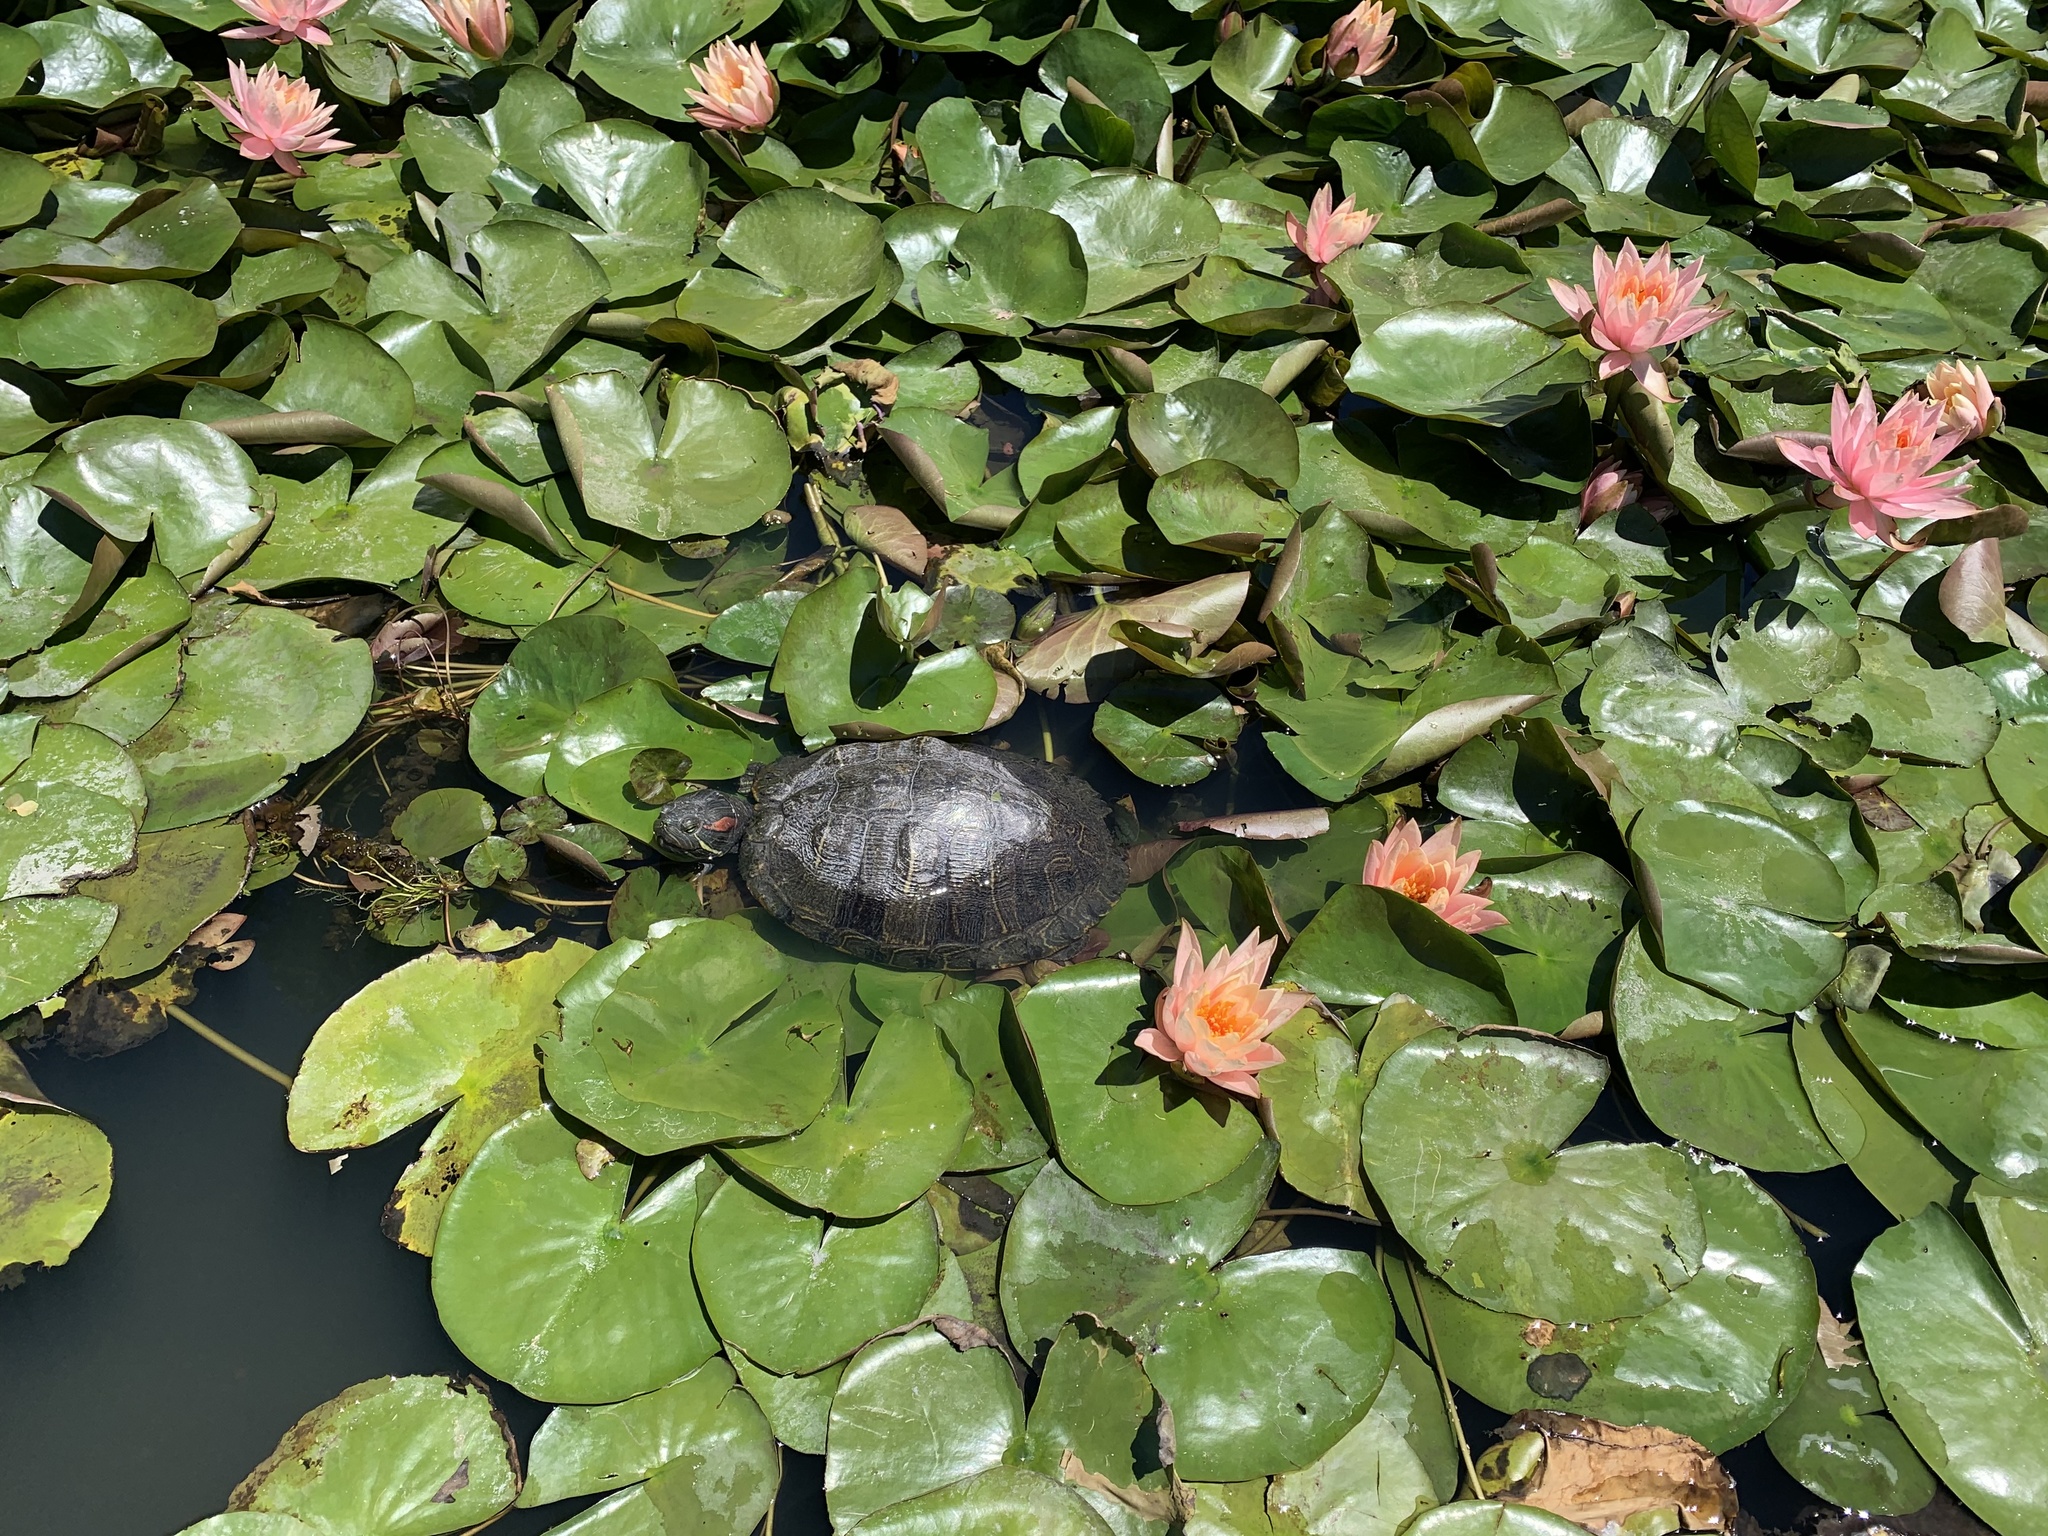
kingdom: Animalia
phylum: Chordata
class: Testudines
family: Emydidae
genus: Trachemys
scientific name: Trachemys scripta
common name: Slider
